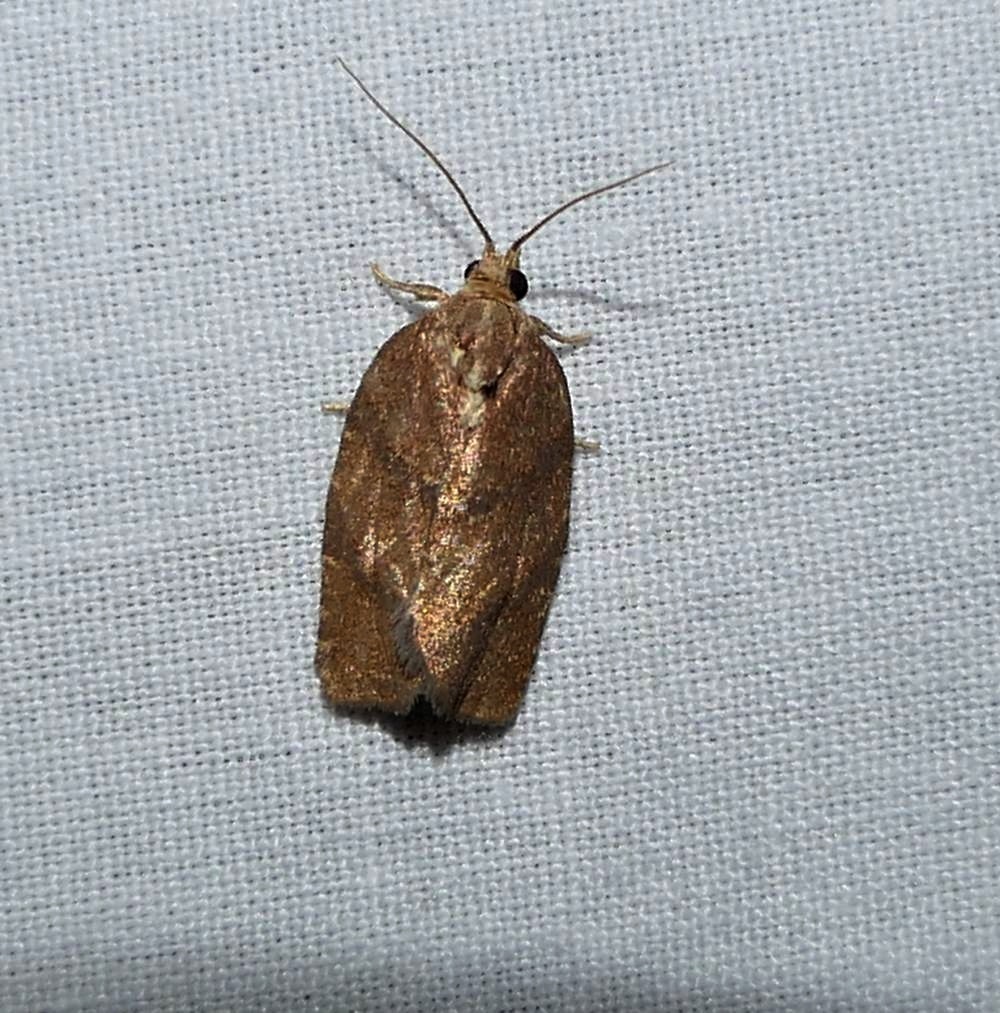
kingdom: Animalia
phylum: Arthropoda
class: Insecta
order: Lepidoptera
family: Tortricidae
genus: Argyrotaenia
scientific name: Argyrotaenia juglandana
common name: Hickory leafroller moth
